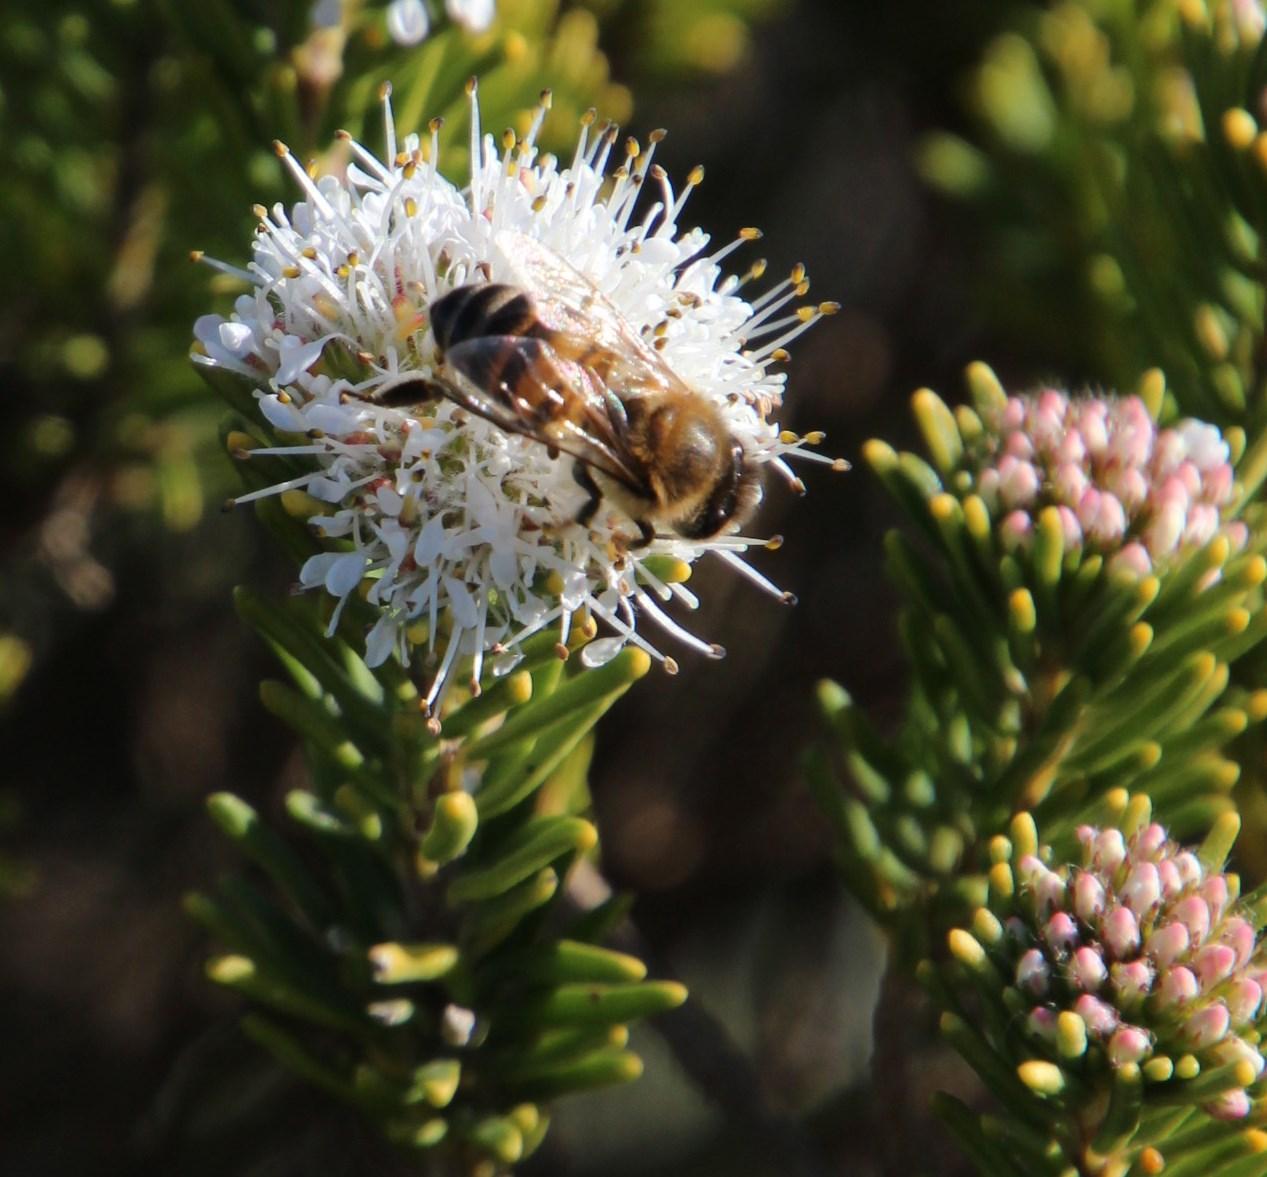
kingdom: Plantae
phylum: Tracheophyta
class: Magnoliopsida
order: Sapindales
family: Rutaceae
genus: Agathosma
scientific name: Agathosma gonaquensis
